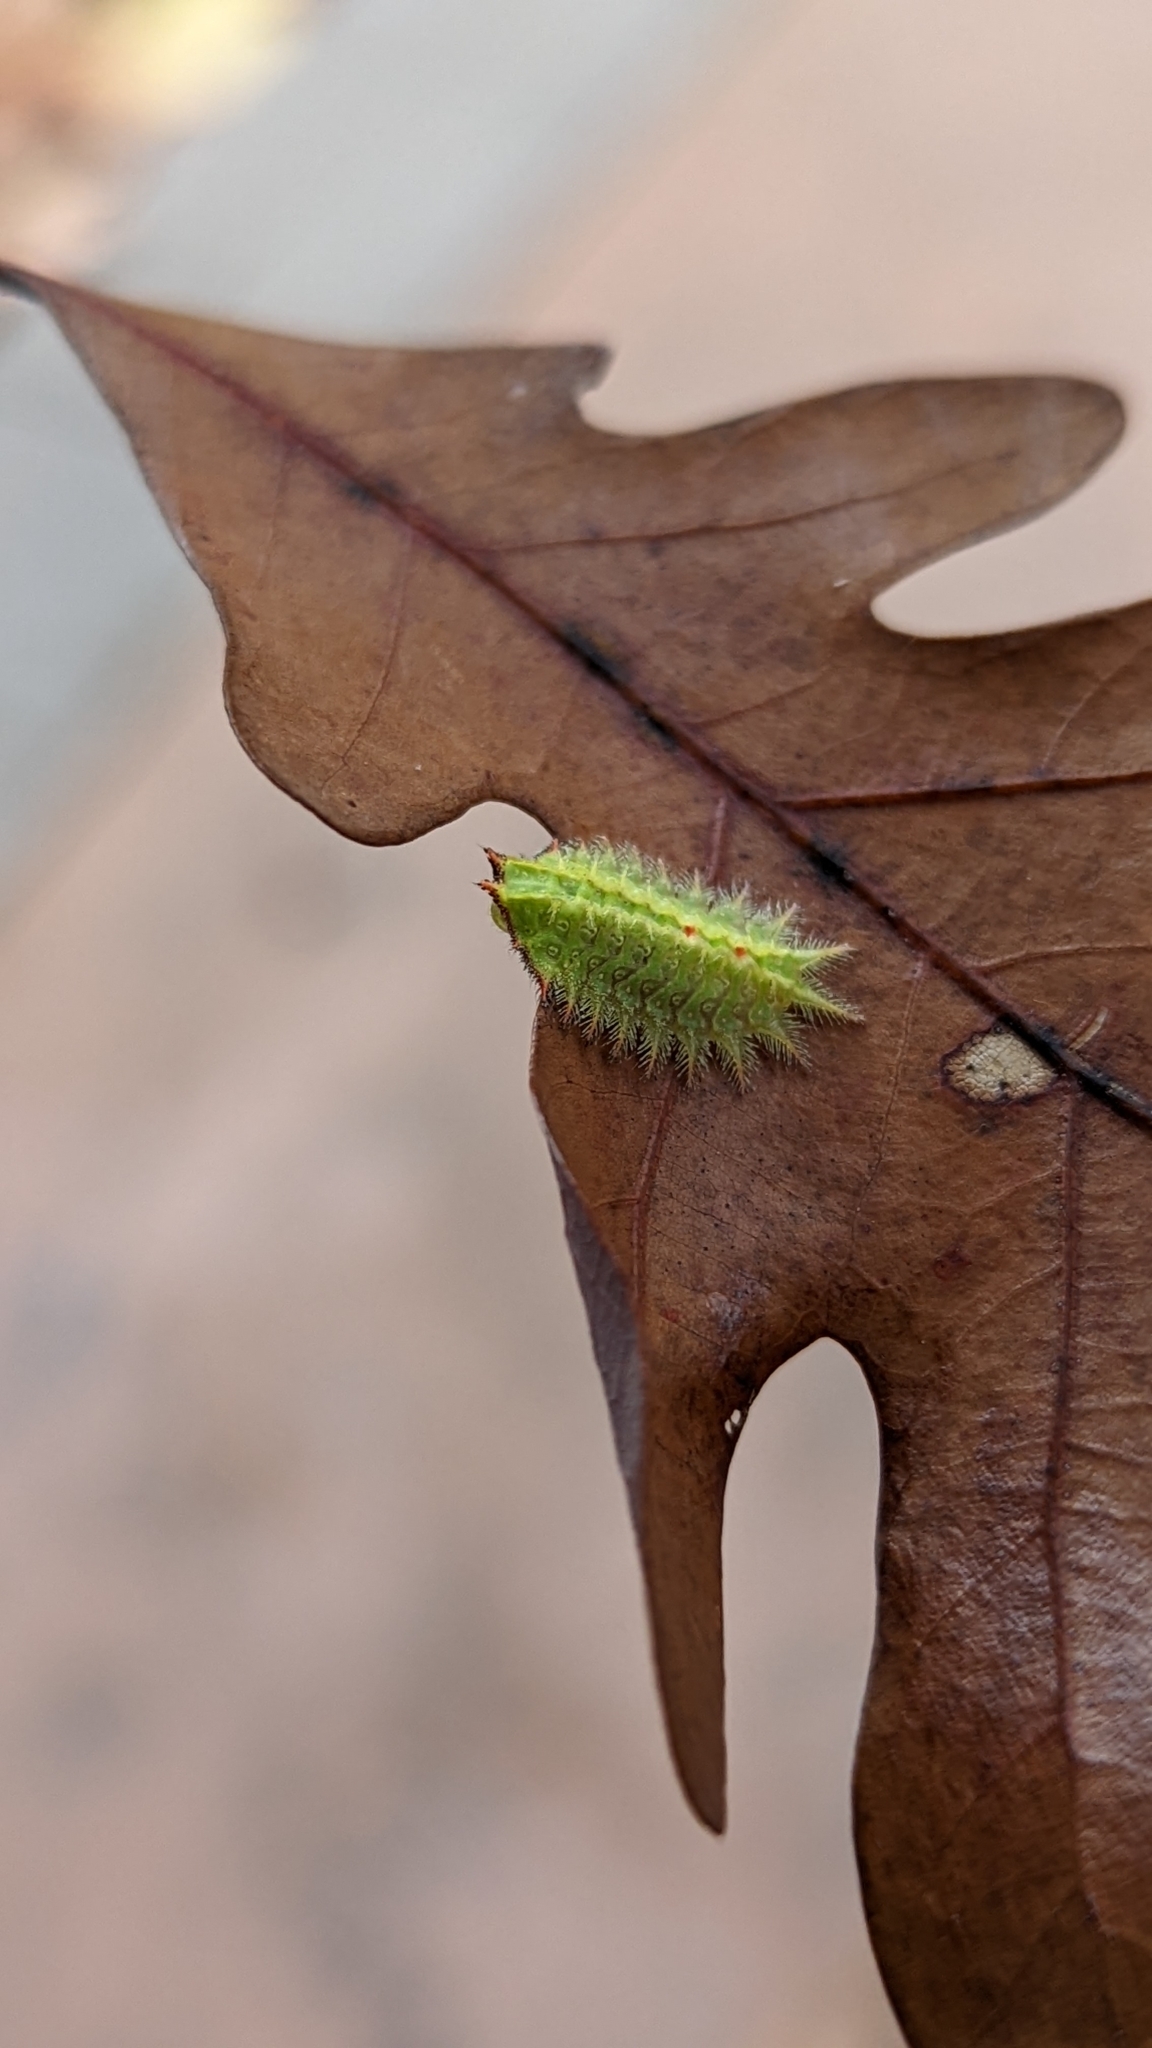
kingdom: Animalia
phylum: Arthropoda
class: Insecta
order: Lepidoptera
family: Limacodidae
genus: Isa
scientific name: Isa textula
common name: Crowned slug moth
